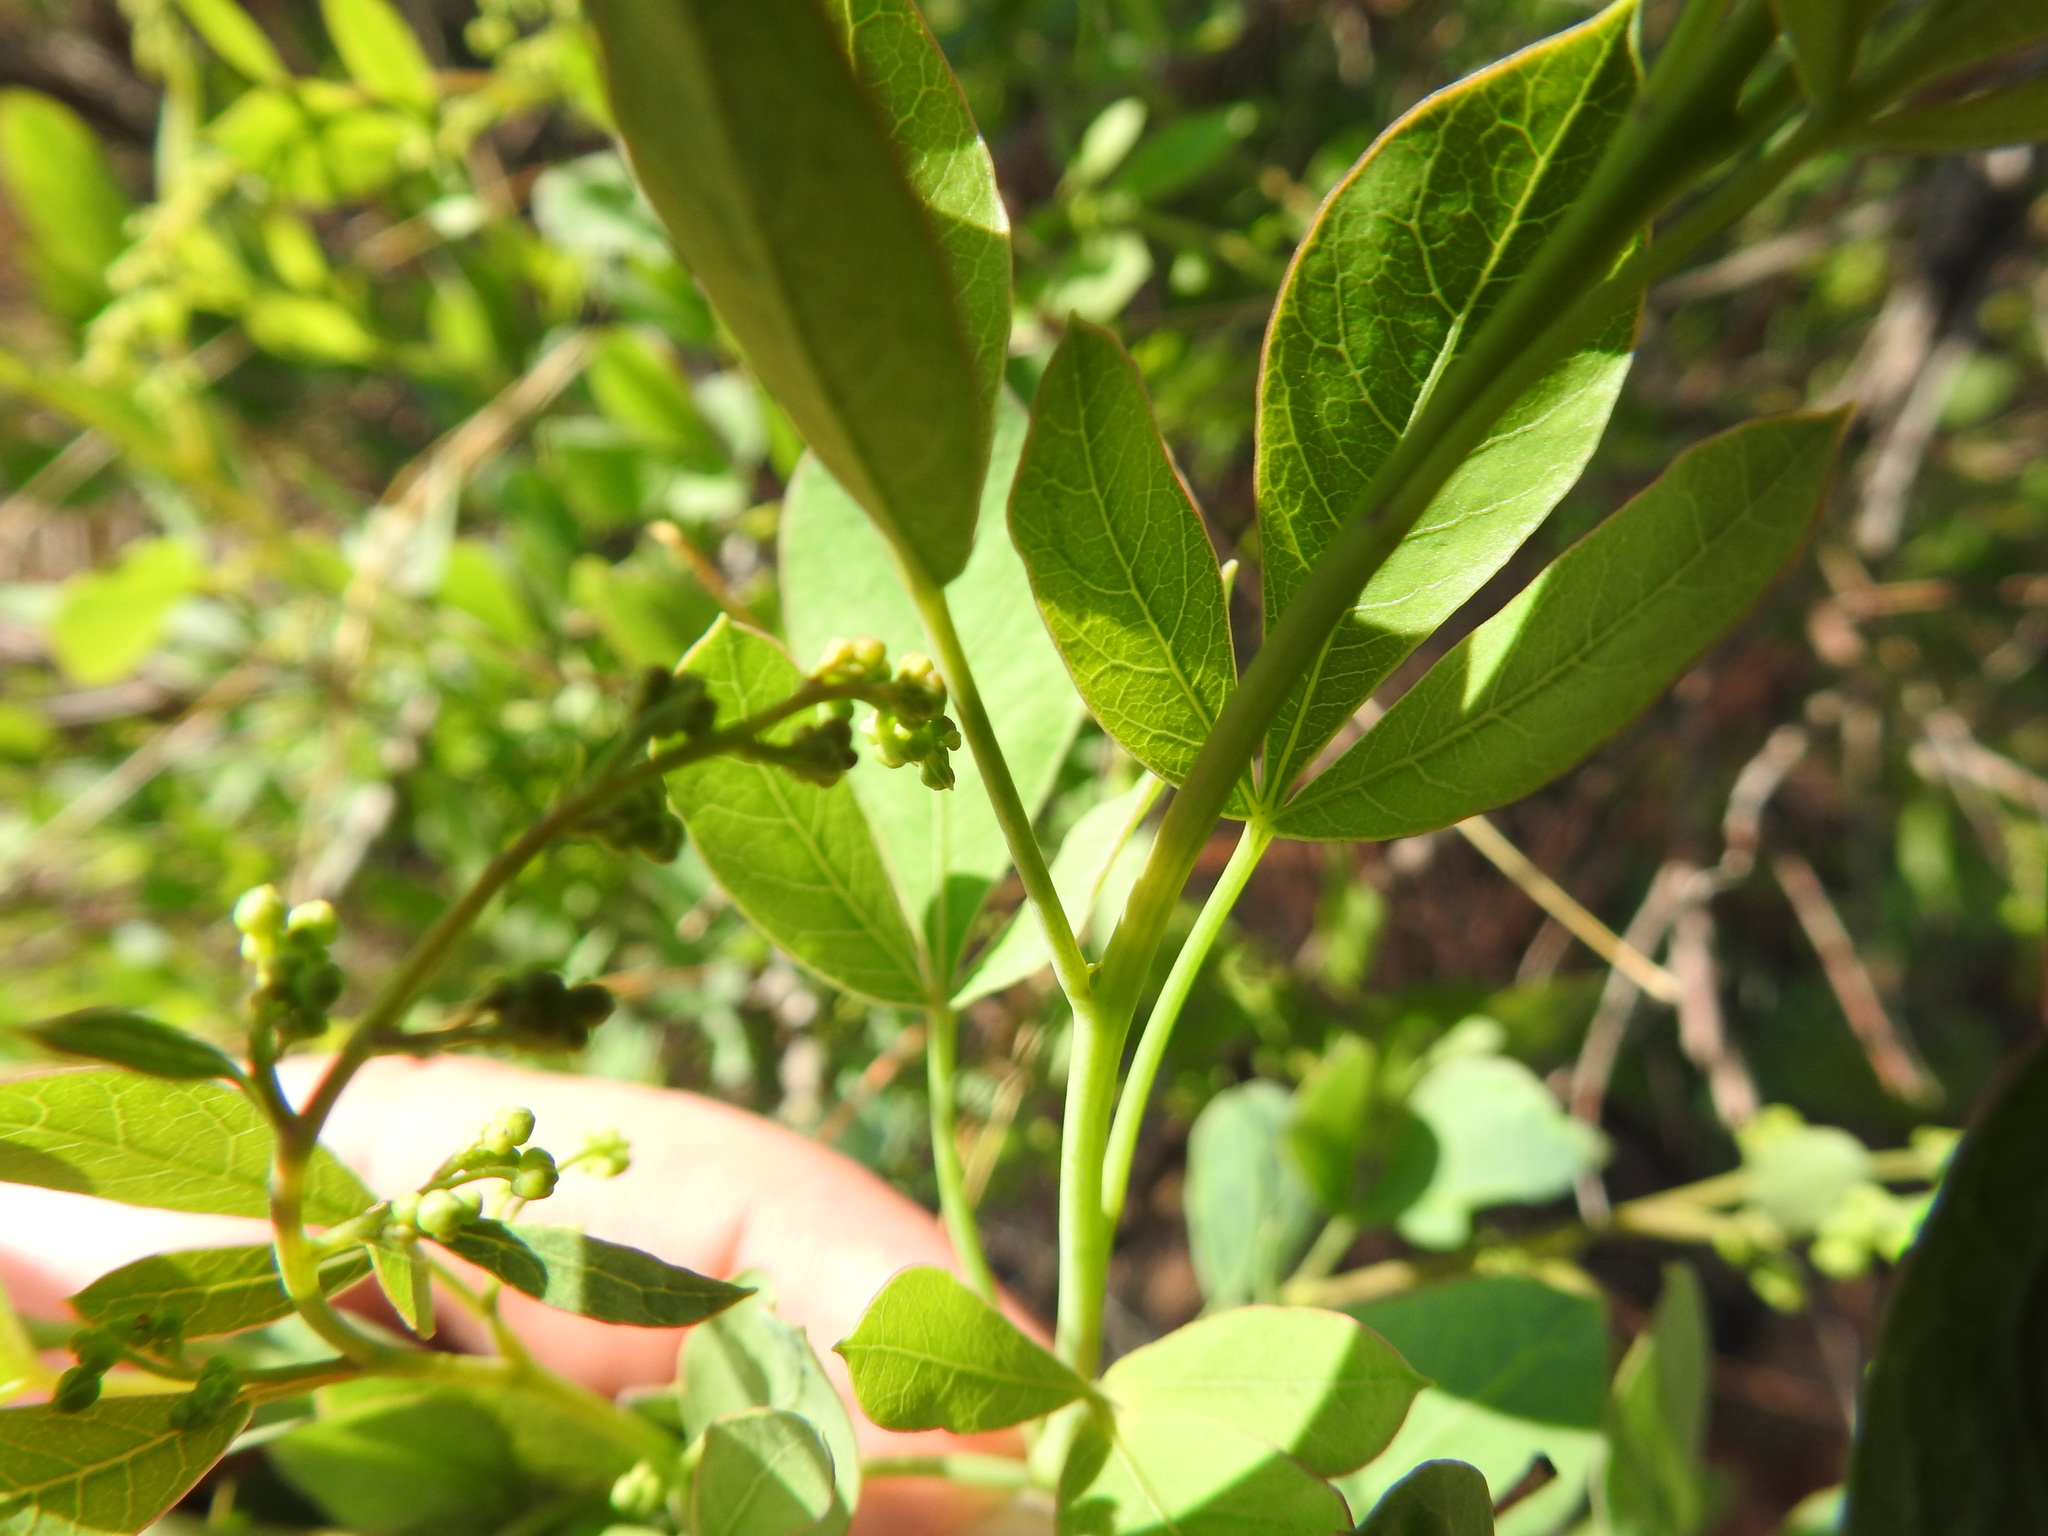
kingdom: Plantae
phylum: Tracheophyta
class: Magnoliopsida
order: Sapindales
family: Anacardiaceae
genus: Searsia
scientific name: Searsia pyroides
